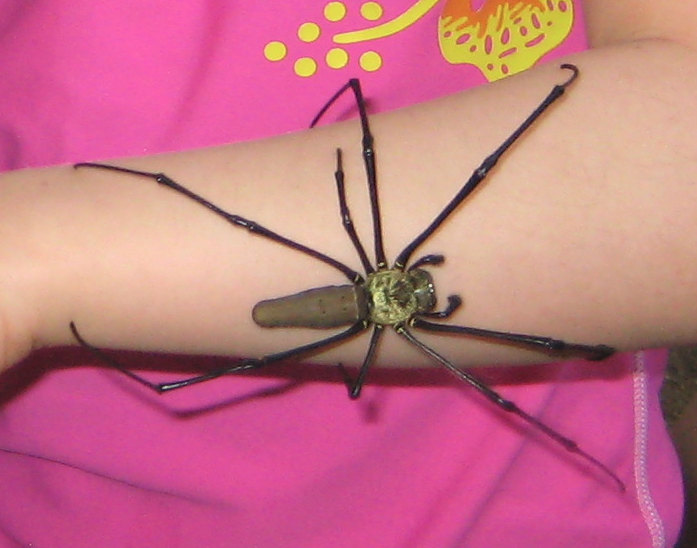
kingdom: Animalia
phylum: Arthropoda
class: Arachnida
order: Araneae
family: Araneidae
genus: Nephila
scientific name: Nephila pilipes
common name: Giant golden orb weaver
